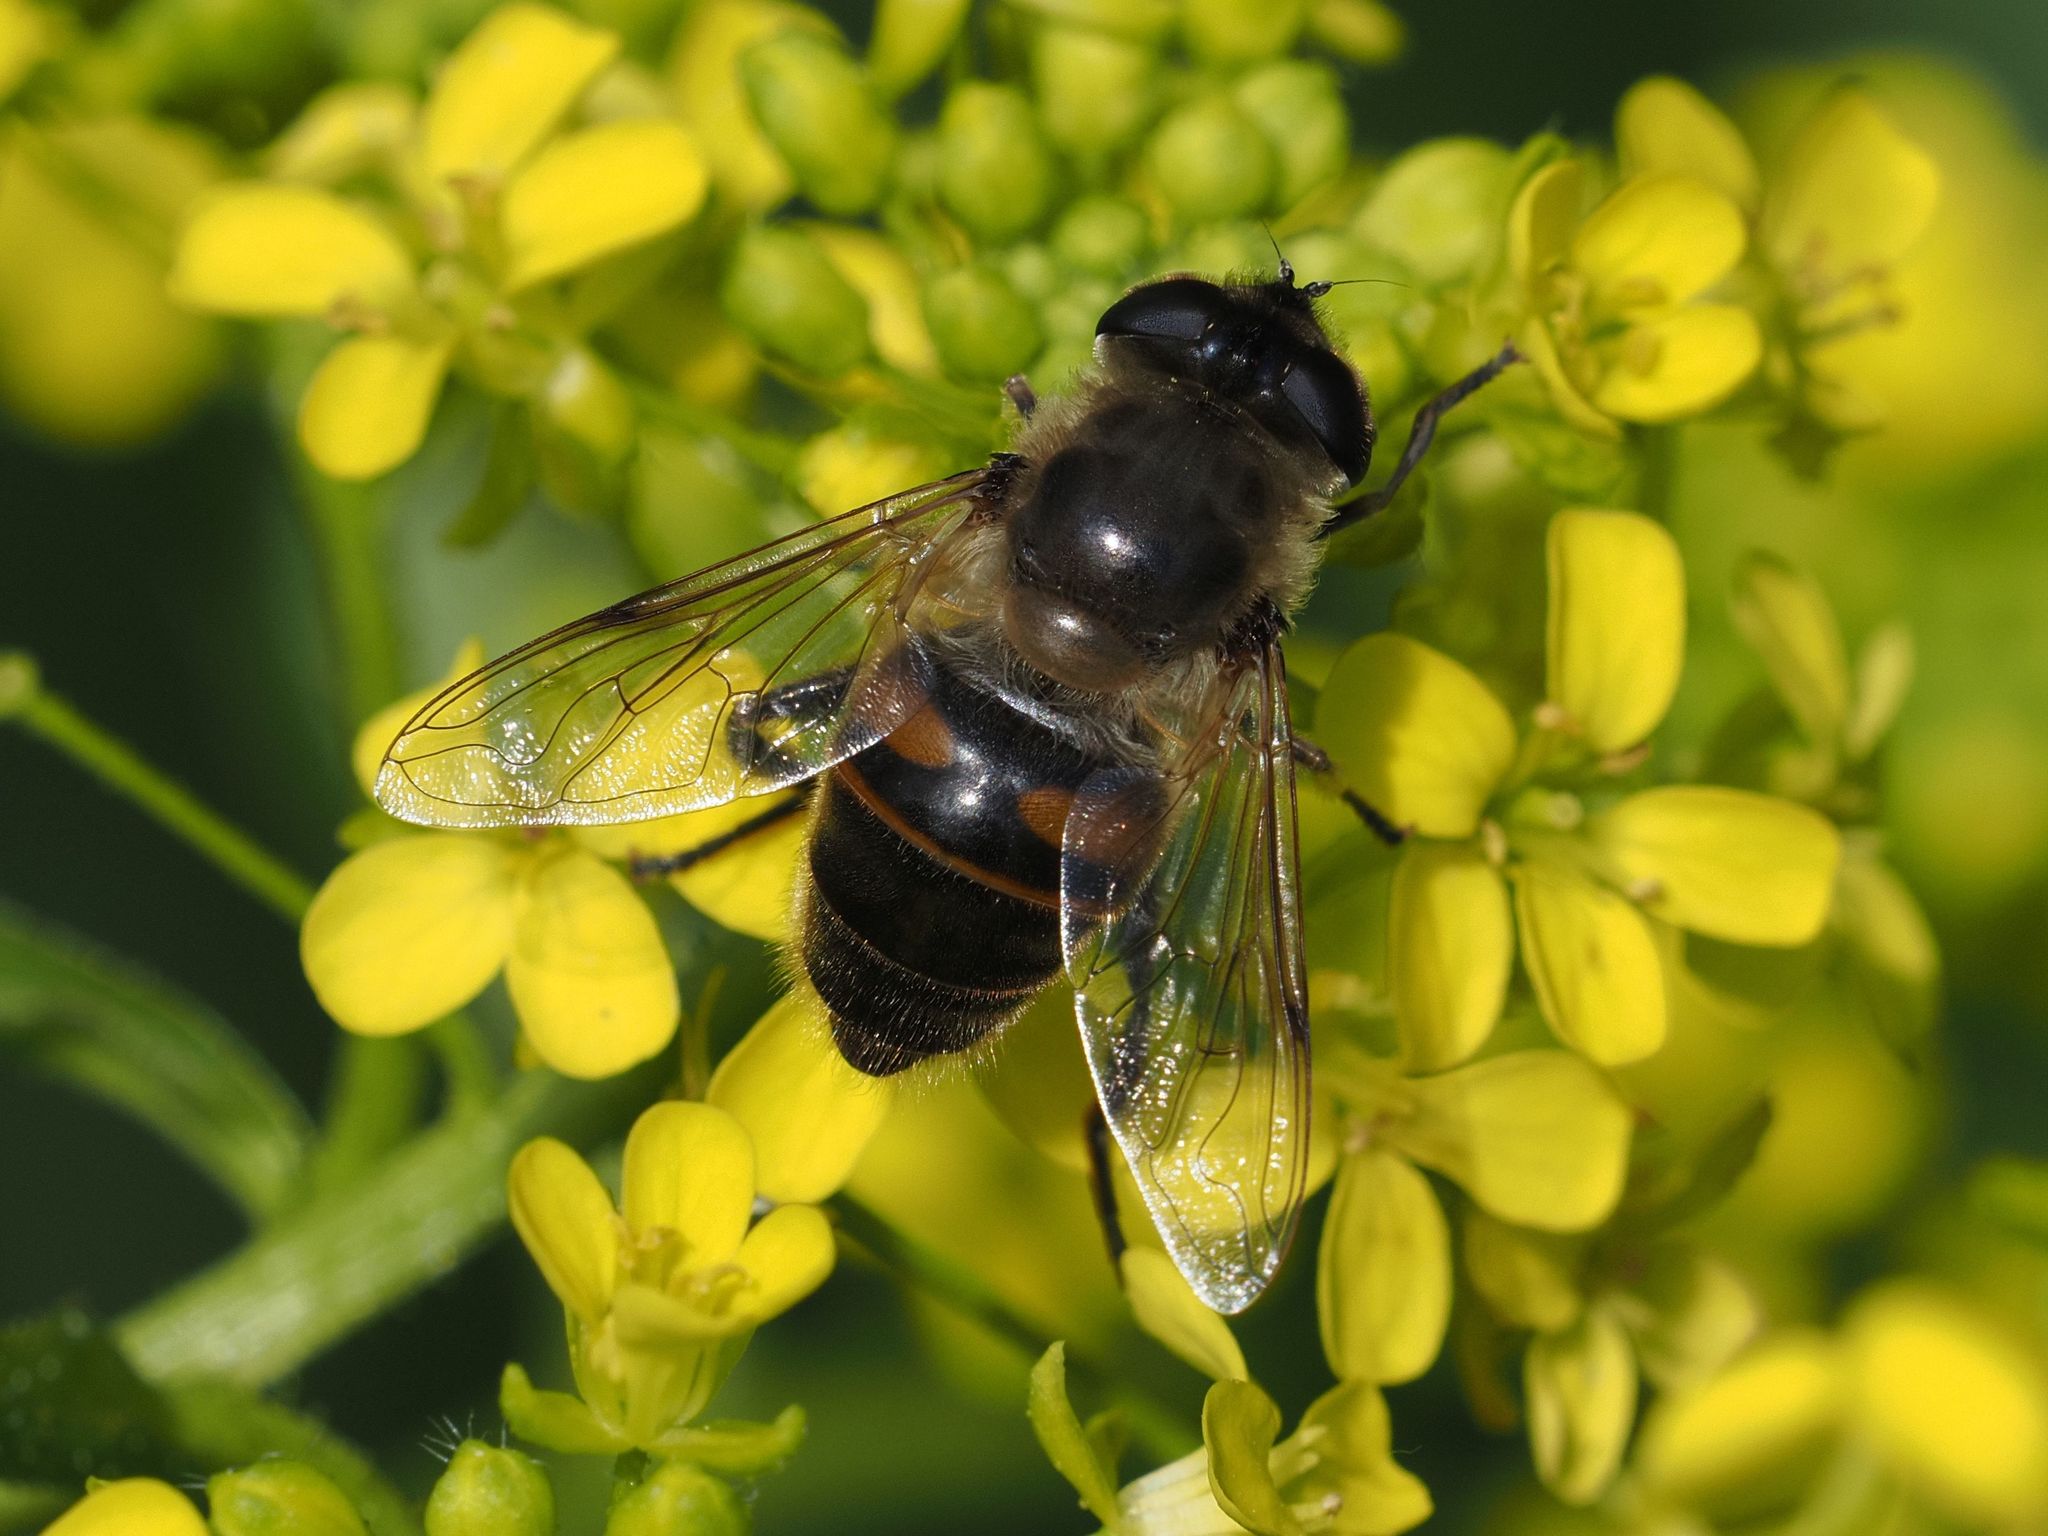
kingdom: Animalia
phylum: Arthropoda
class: Insecta
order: Diptera
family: Syrphidae
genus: Eristalis
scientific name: Eristalis tenax
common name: Drone fly
